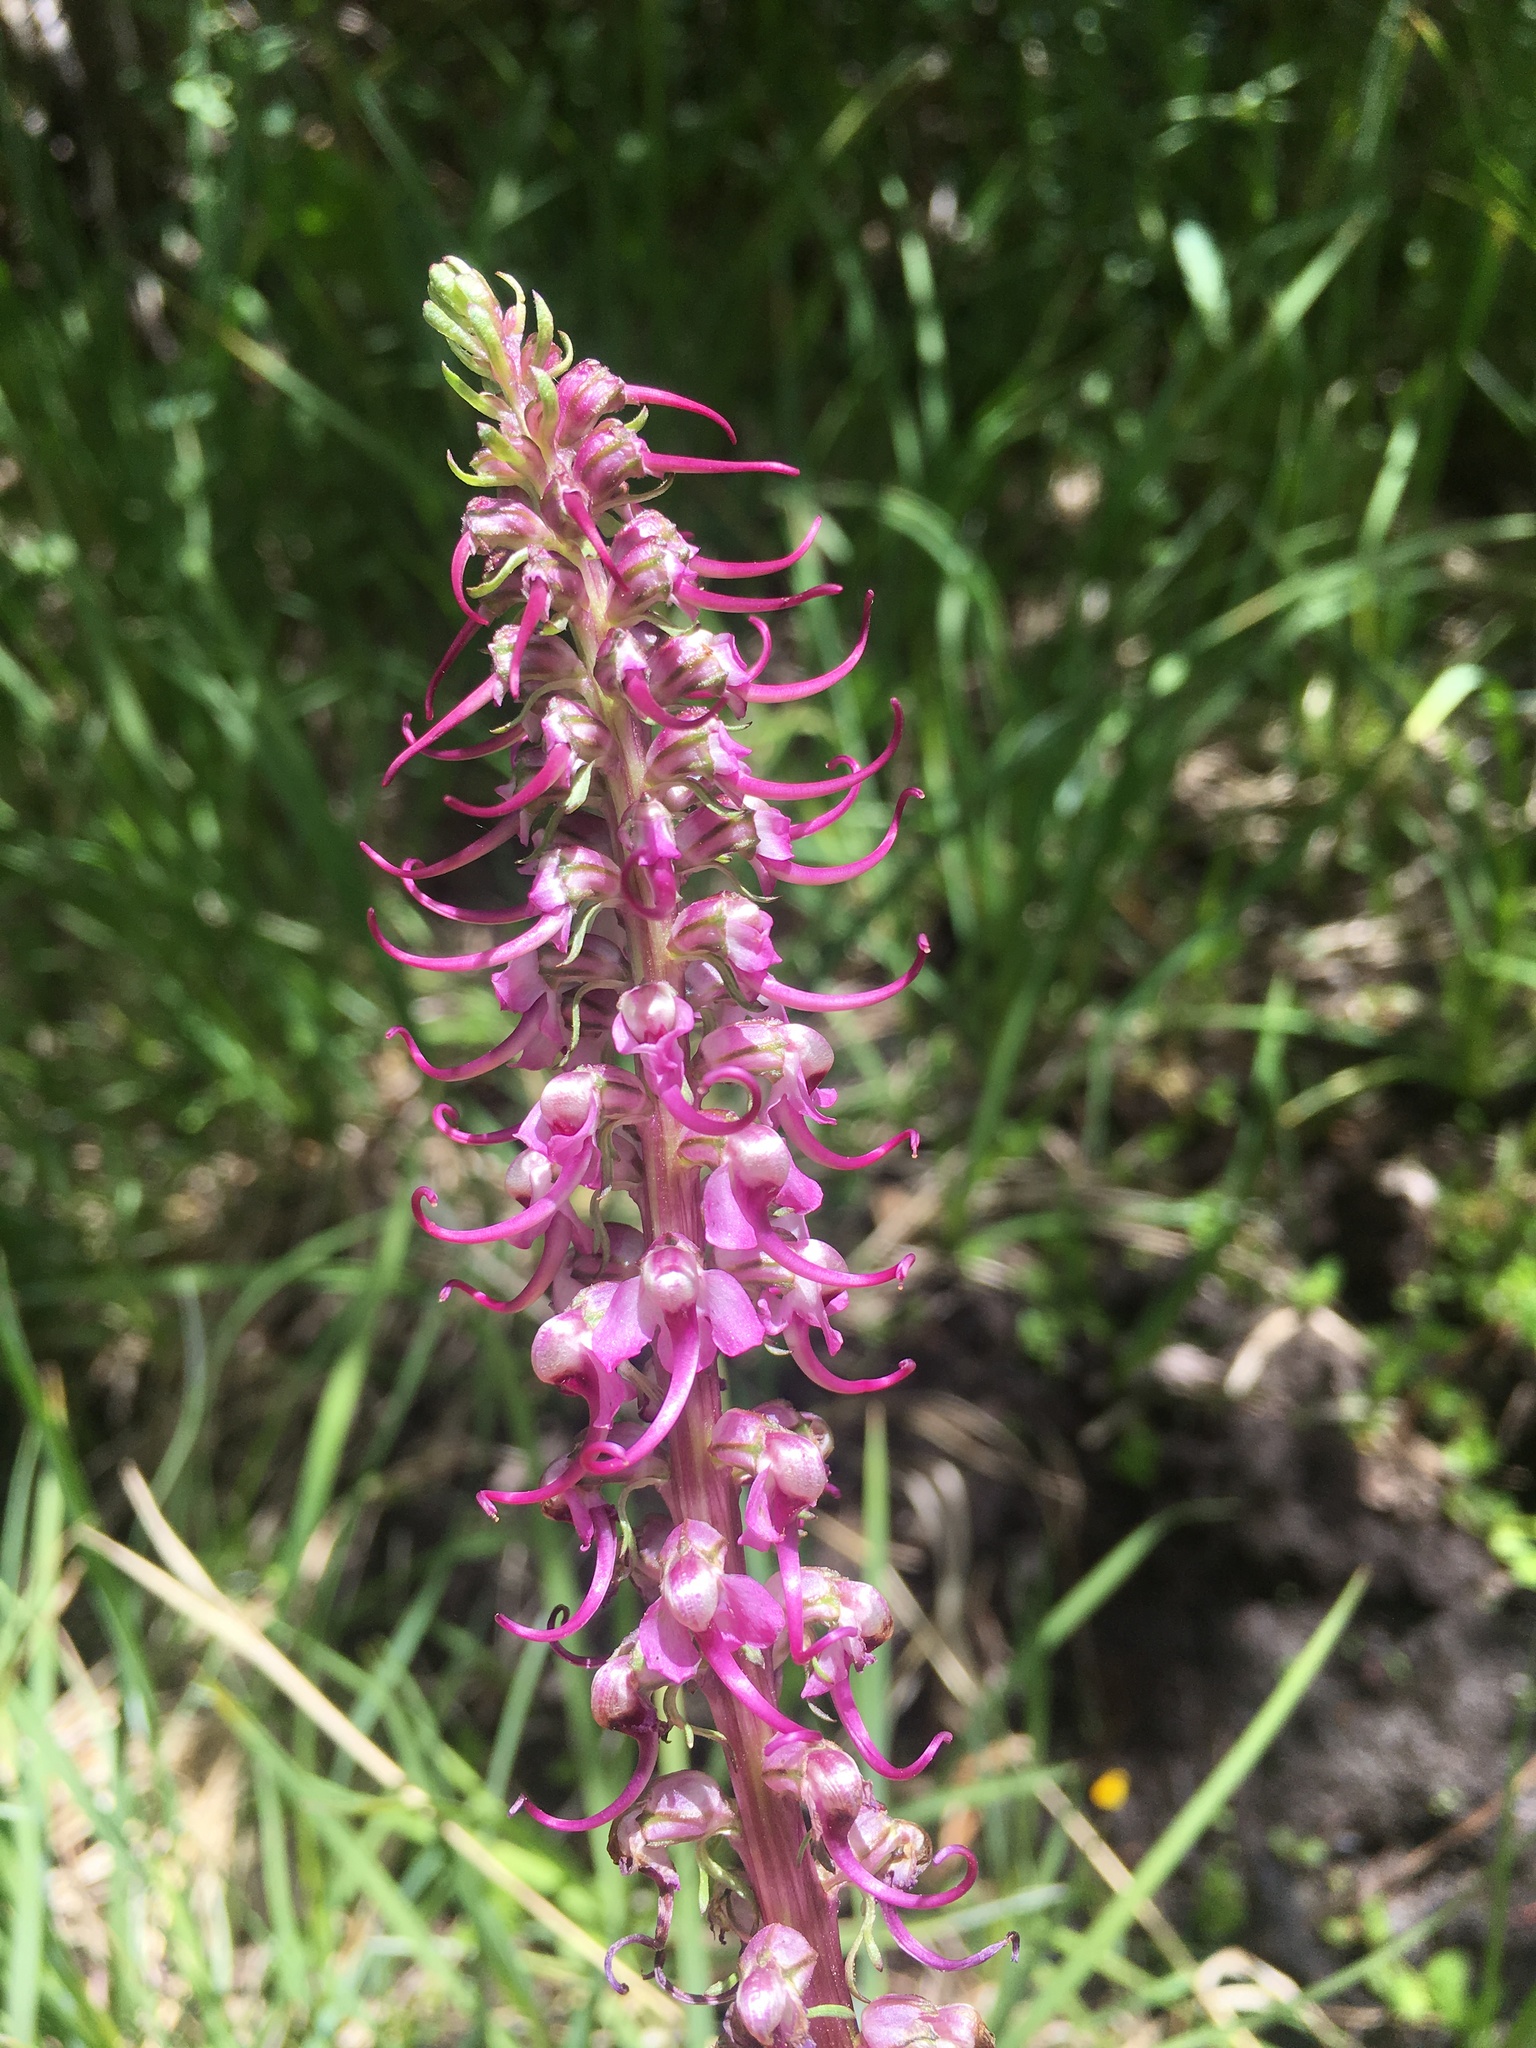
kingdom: Plantae
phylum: Tracheophyta
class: Magnoliopsida
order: Lamiales
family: Orobanchaceae
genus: Pedicularis
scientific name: Pedicularis groenlandica
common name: Elephant's-head
